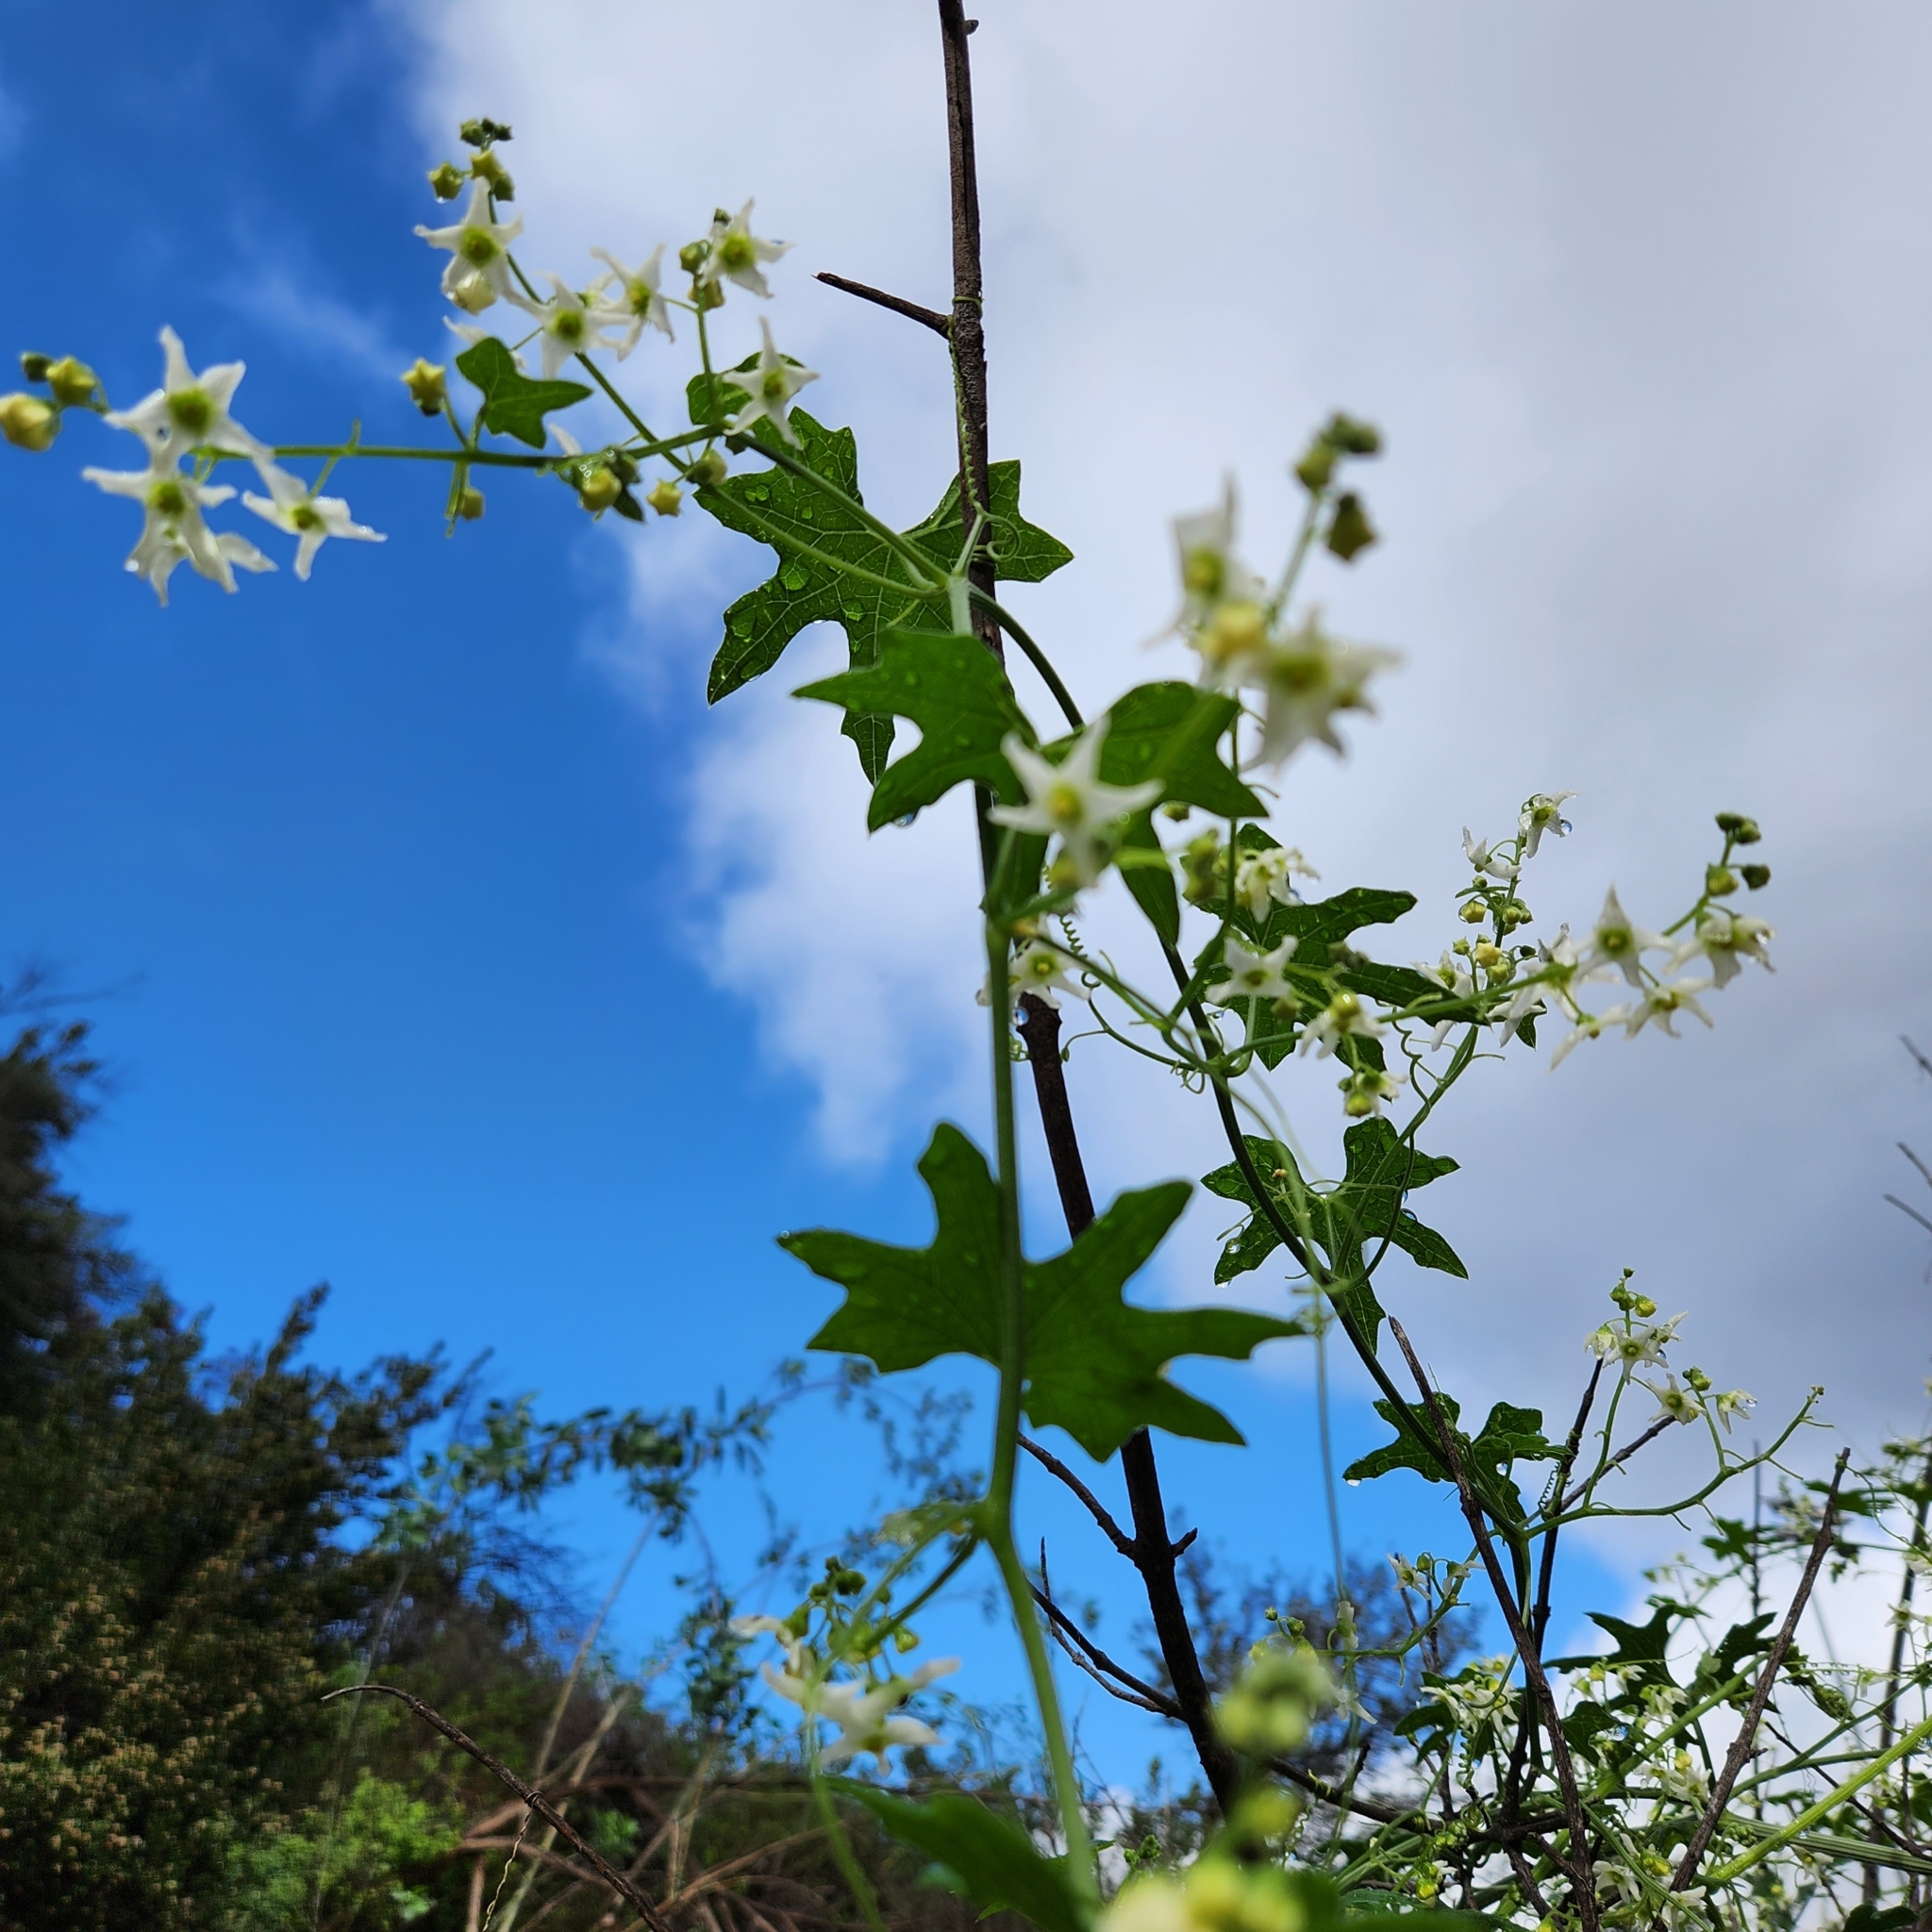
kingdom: Plantae
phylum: Tracheophyta
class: Magnoliopsida
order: Cucurbitales
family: Cucurbitaceae
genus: Marah
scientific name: Marah macrocarpa
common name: Cucamonga manroot
